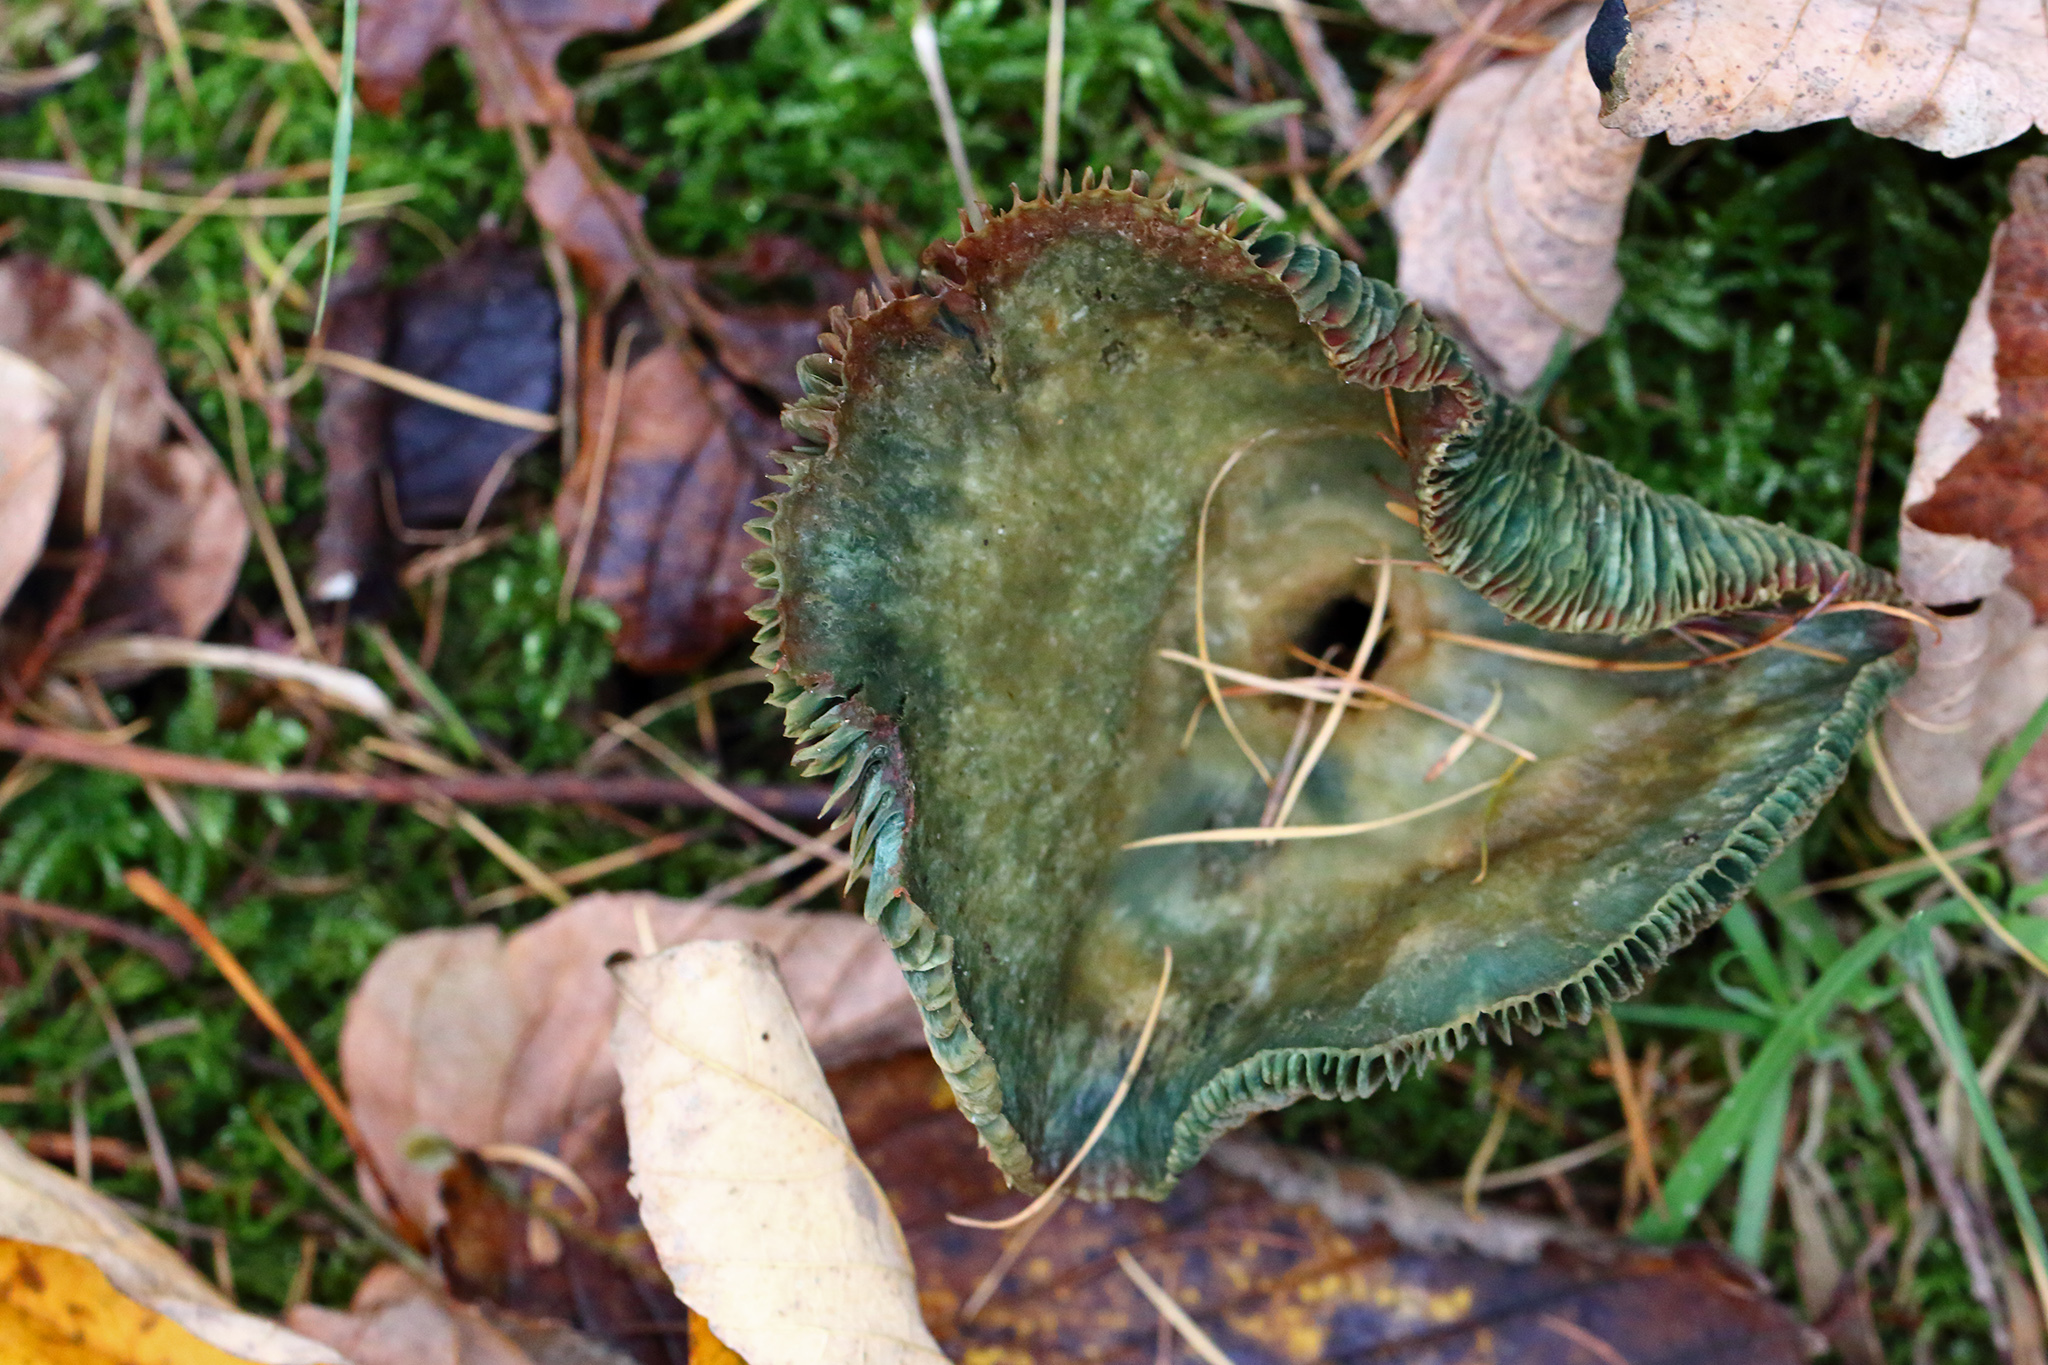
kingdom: Fungi
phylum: Basidiomycota
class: Agaricomycetes
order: Russulales
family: Russulaceae
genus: Lactarius
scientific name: Lactarius deterrimus
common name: False saffron milkcap
